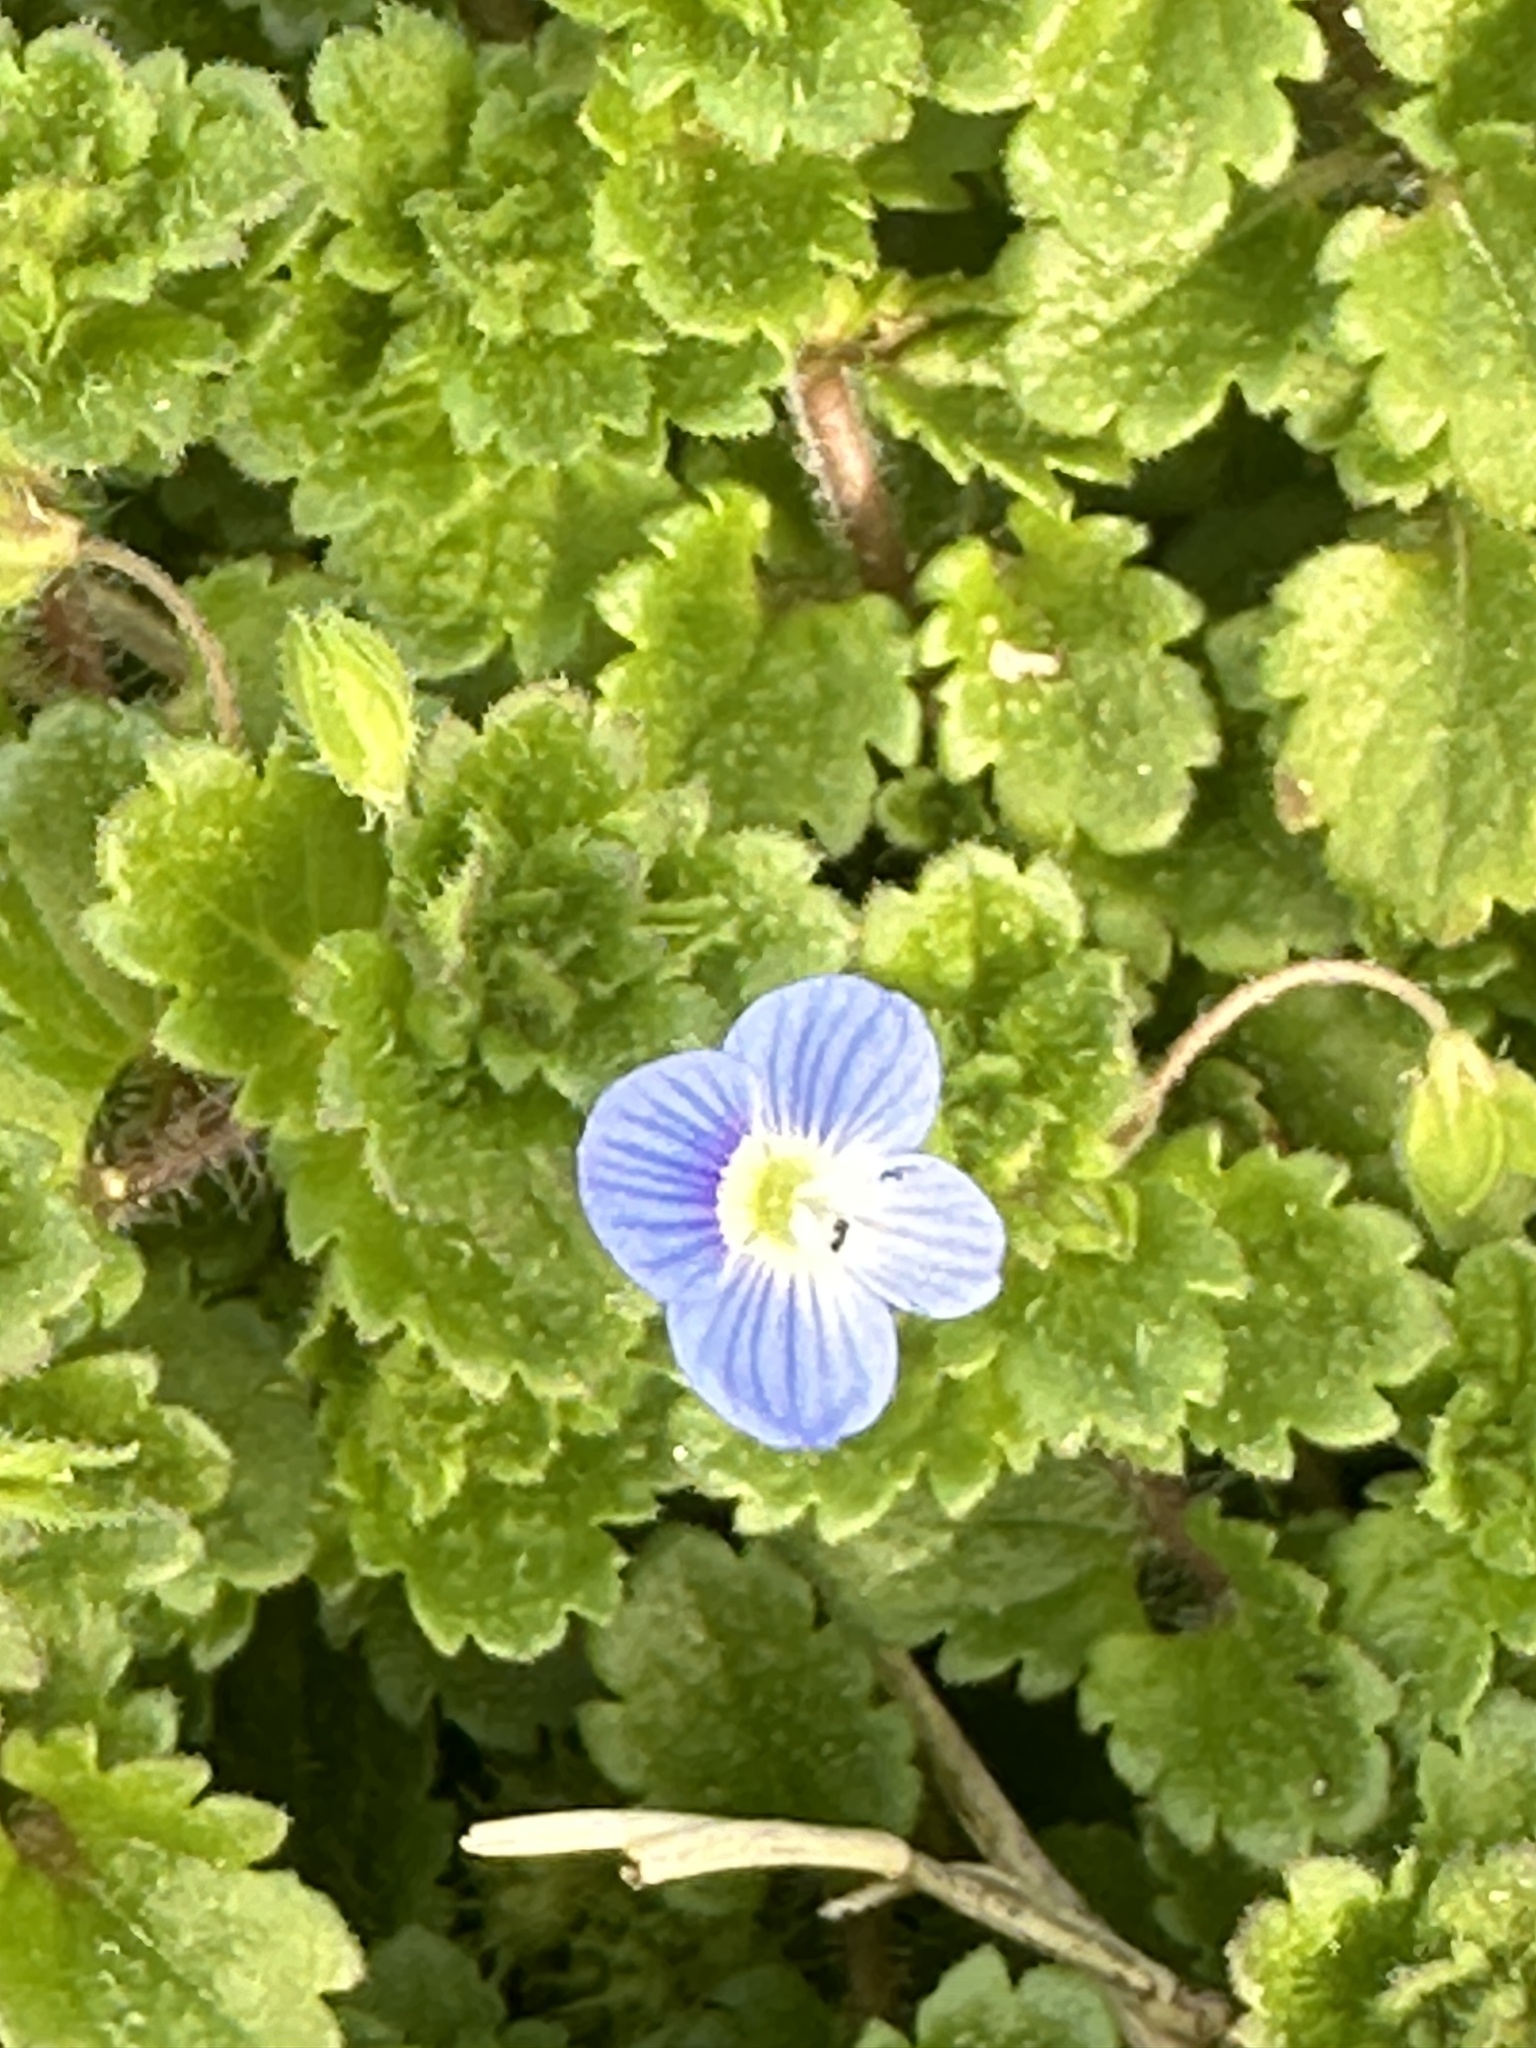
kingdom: Plantae
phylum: Tracheophyta
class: Magnoliopsida
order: Lamiales
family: Plantaginaceae
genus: Veronica
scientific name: Veronica persica
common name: Common field-speedwell
